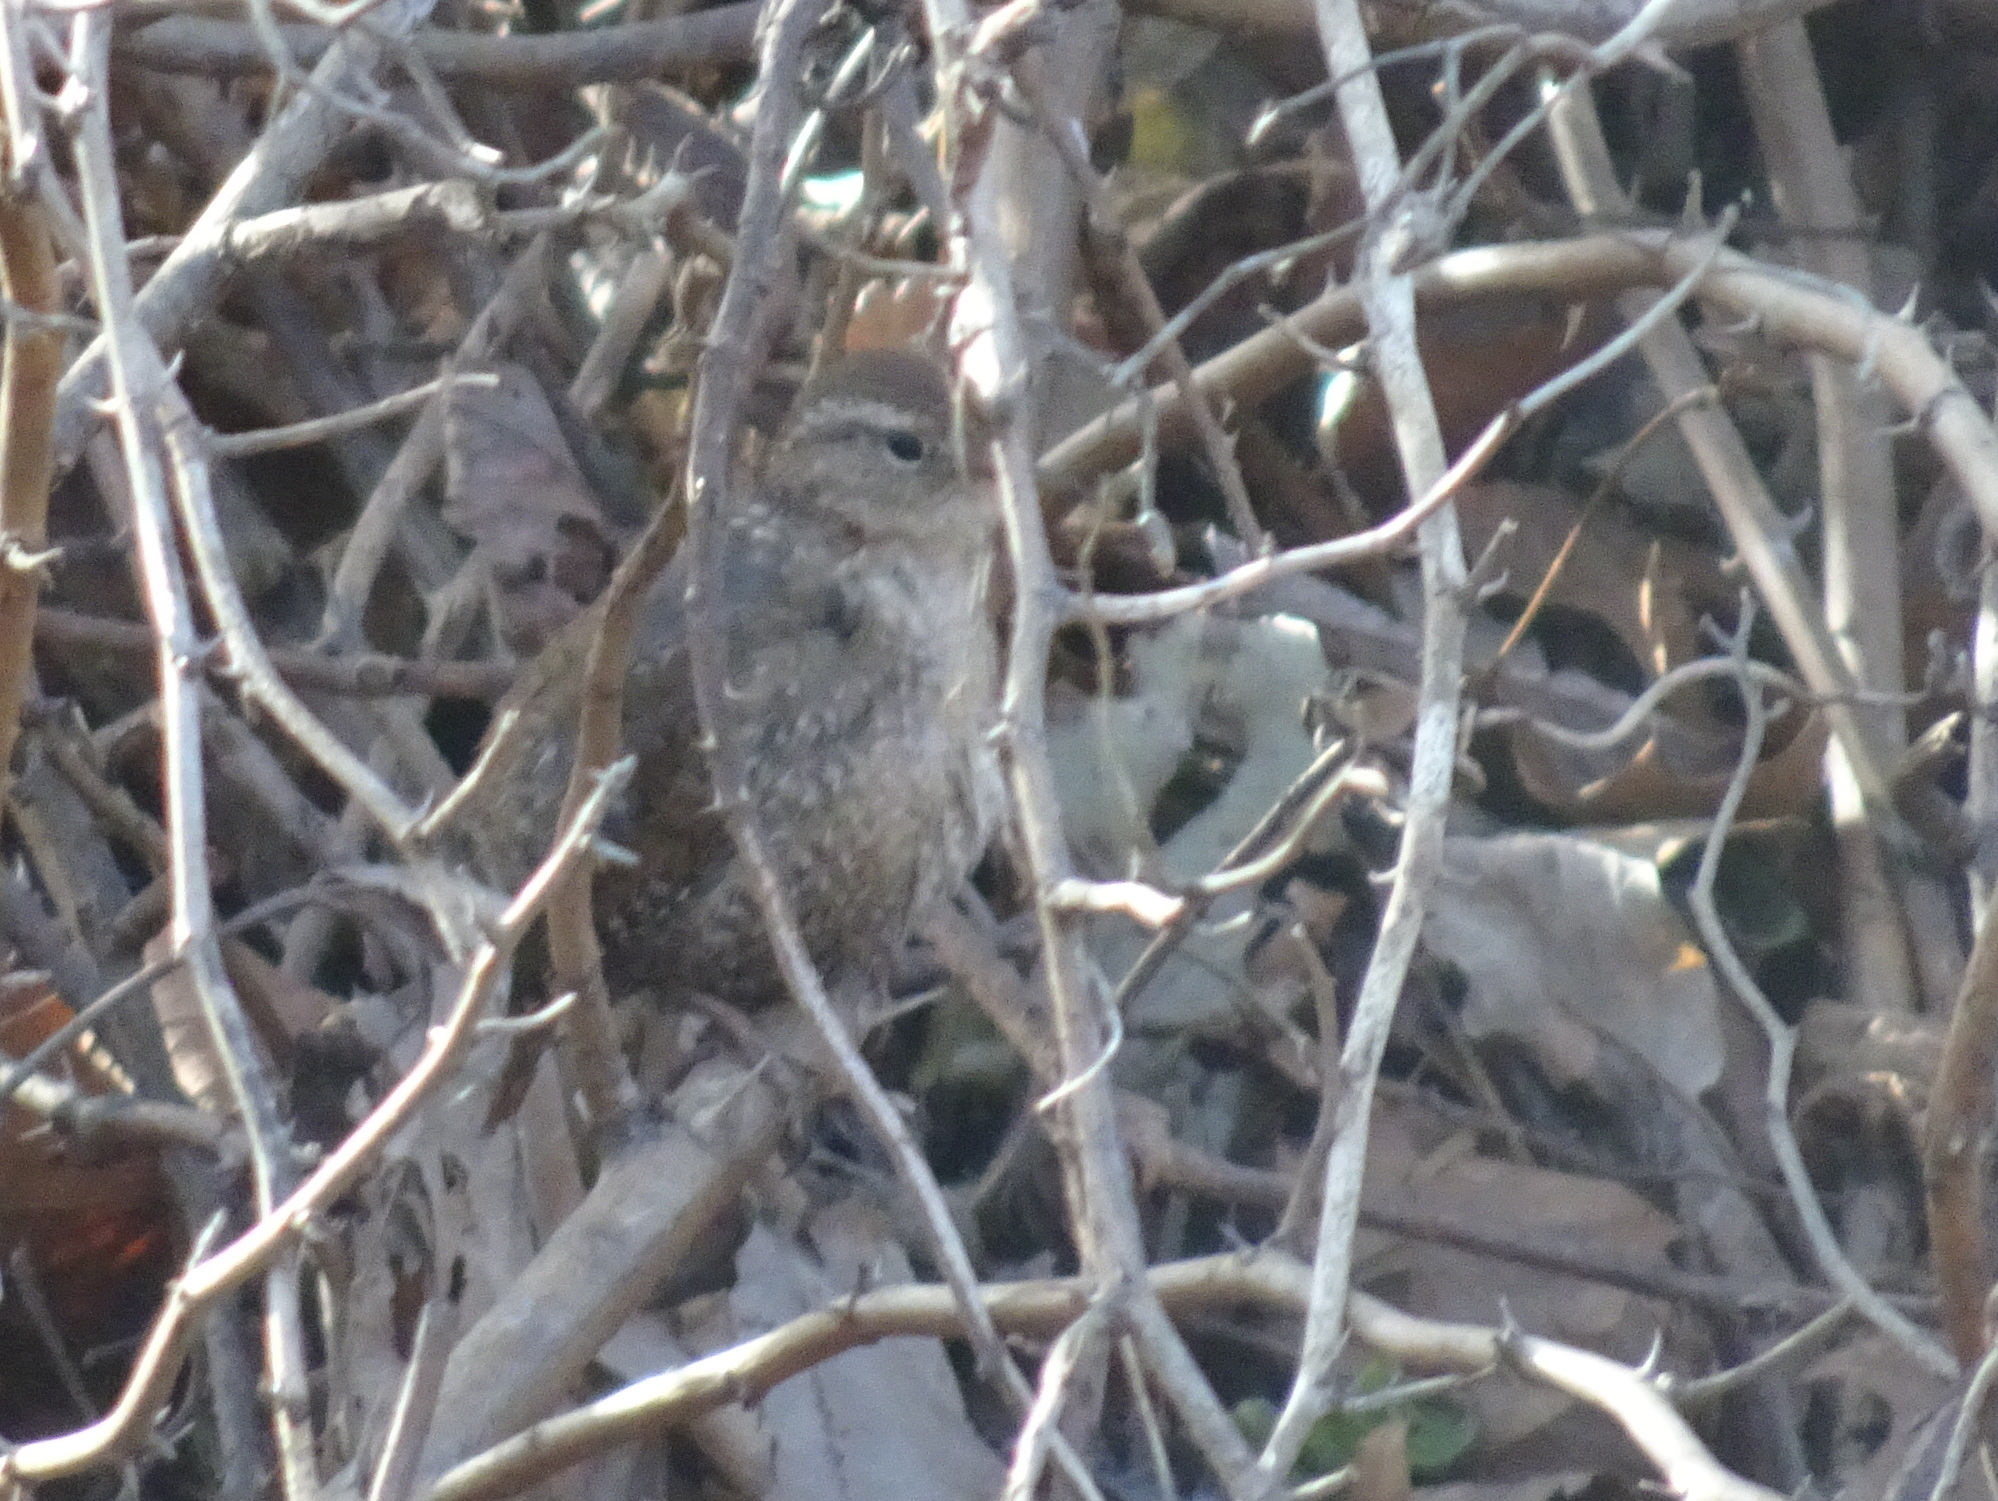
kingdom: Animalia
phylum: Chordata
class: Aves
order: Passeriformes
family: Troglodytidae
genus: Troglodytes
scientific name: Troglodytes hiemalis
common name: Winter wren
